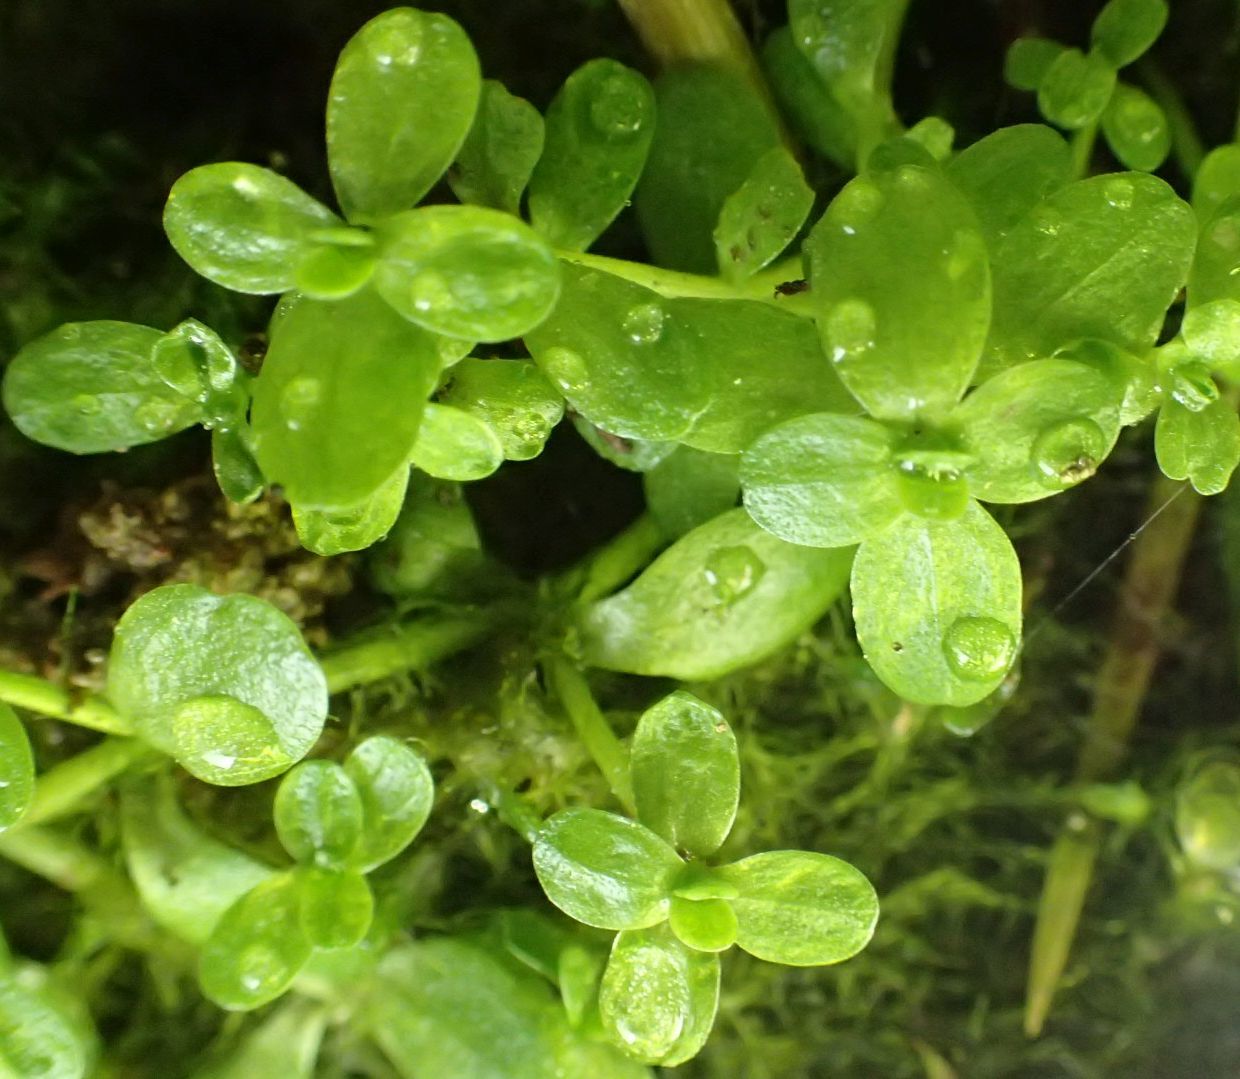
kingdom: Plantae
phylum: Tracheophyta
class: Magnoliopsida
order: Lamiales
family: Plantaginaceae
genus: Callitriche
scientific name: Callitriche stagnalis
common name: Common water-starwort
